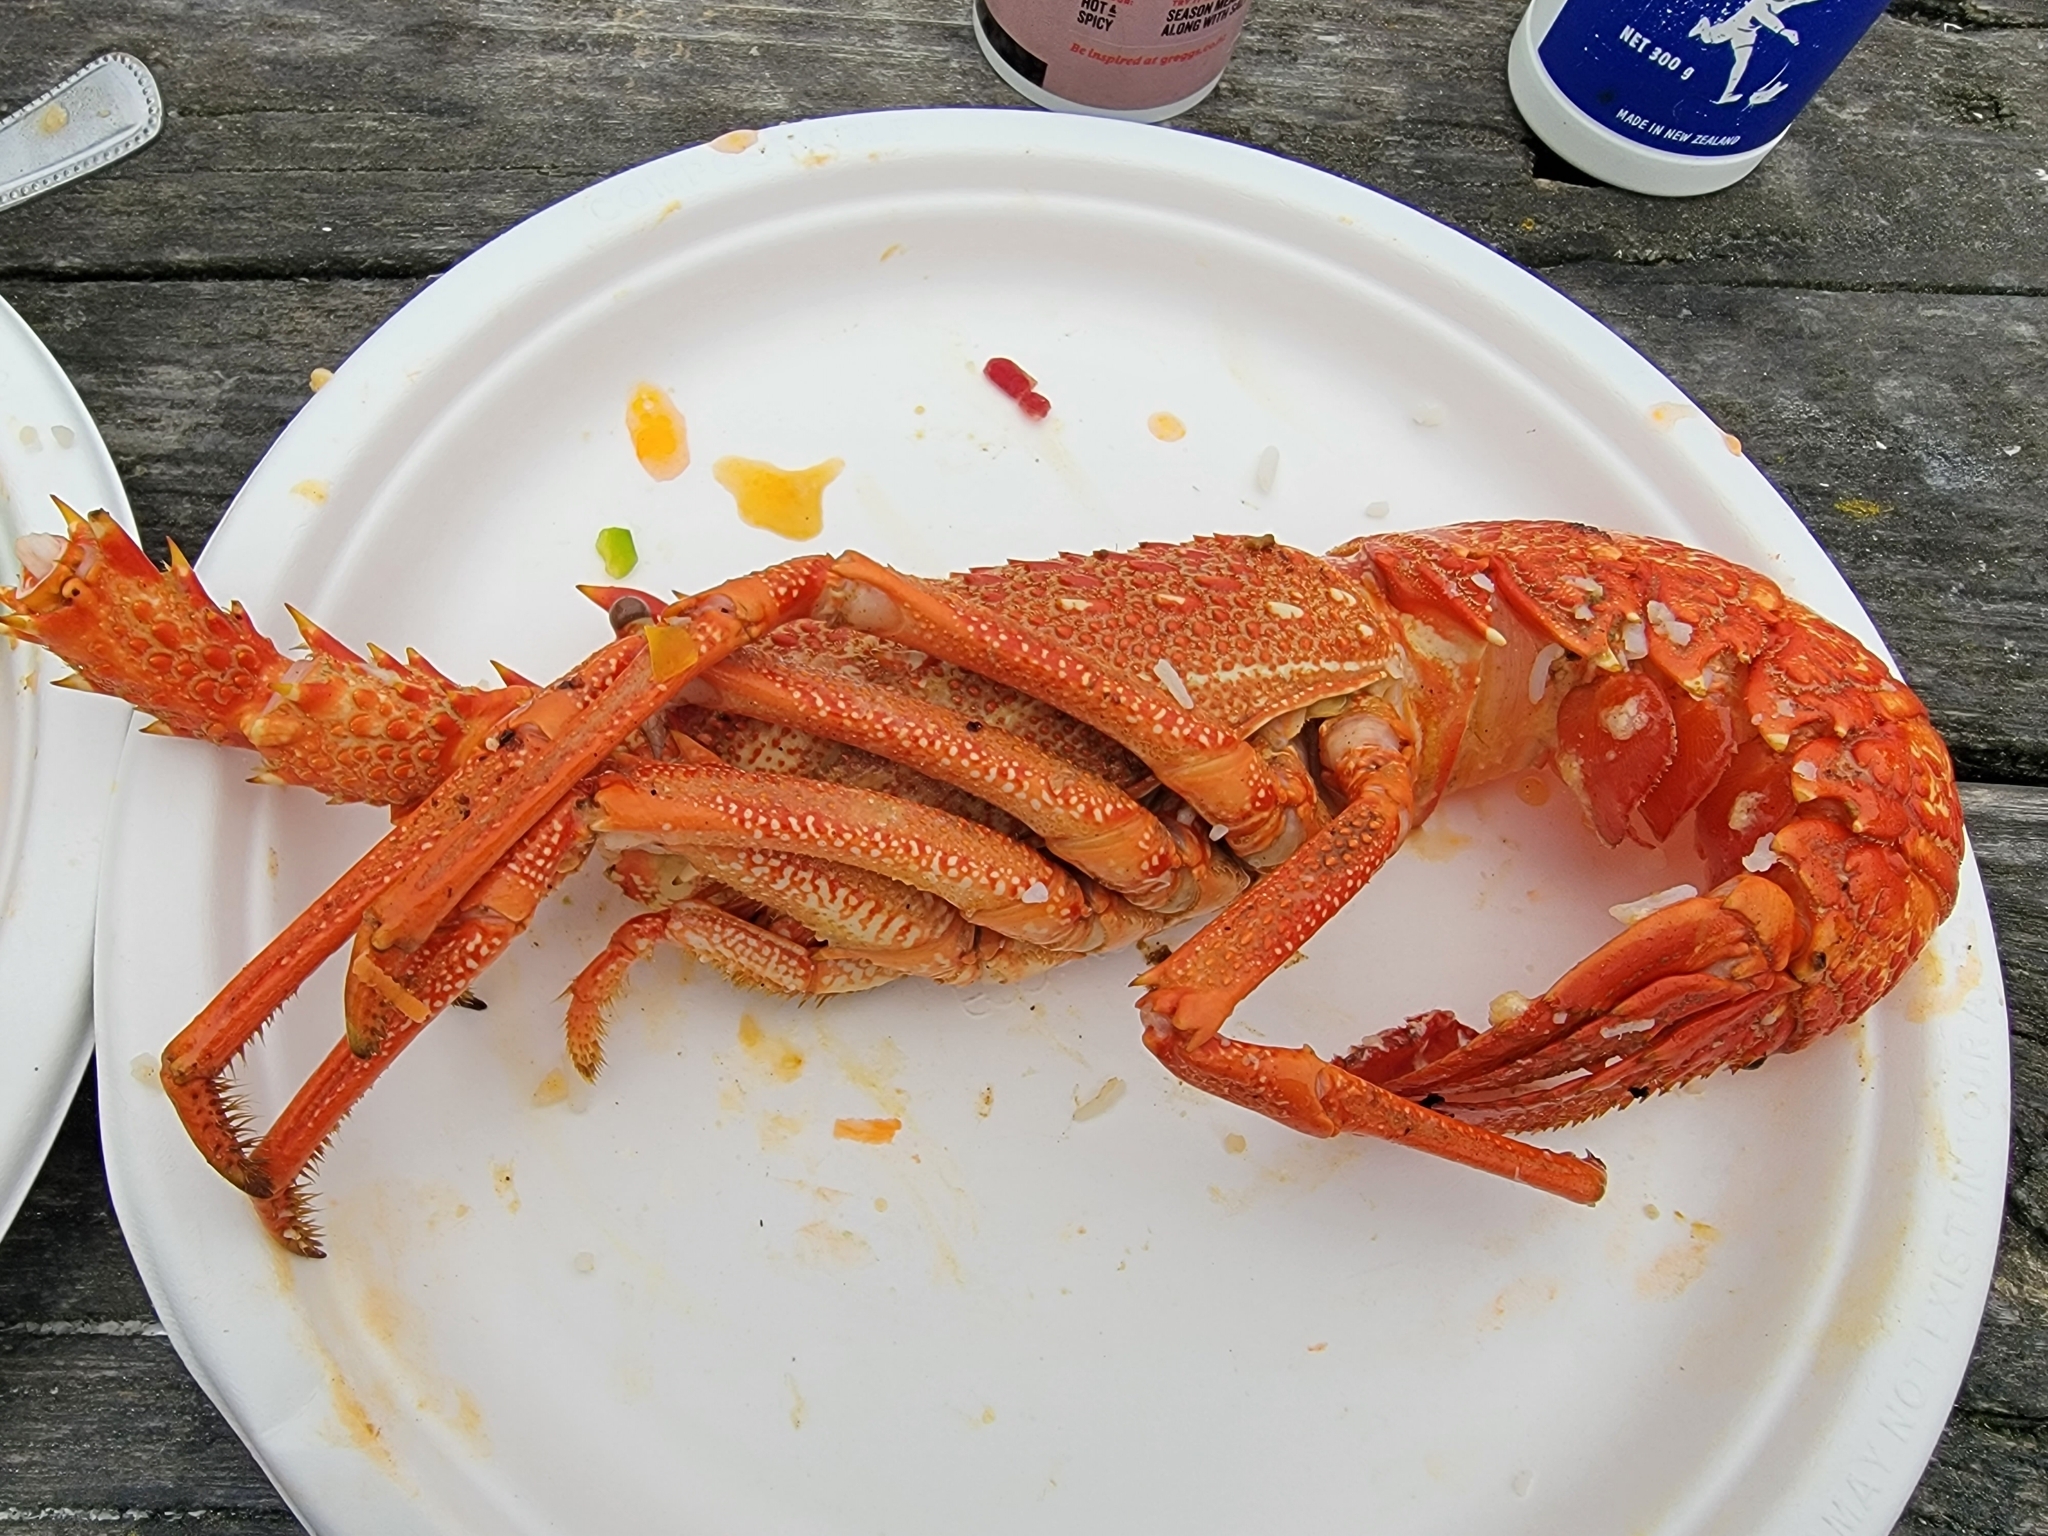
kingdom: Animalia
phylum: Arthropoda
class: Malacostraca
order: Decapoda
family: Palinuridae
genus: Jasus
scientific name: Jasus edwardsii
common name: Red rock lobster
